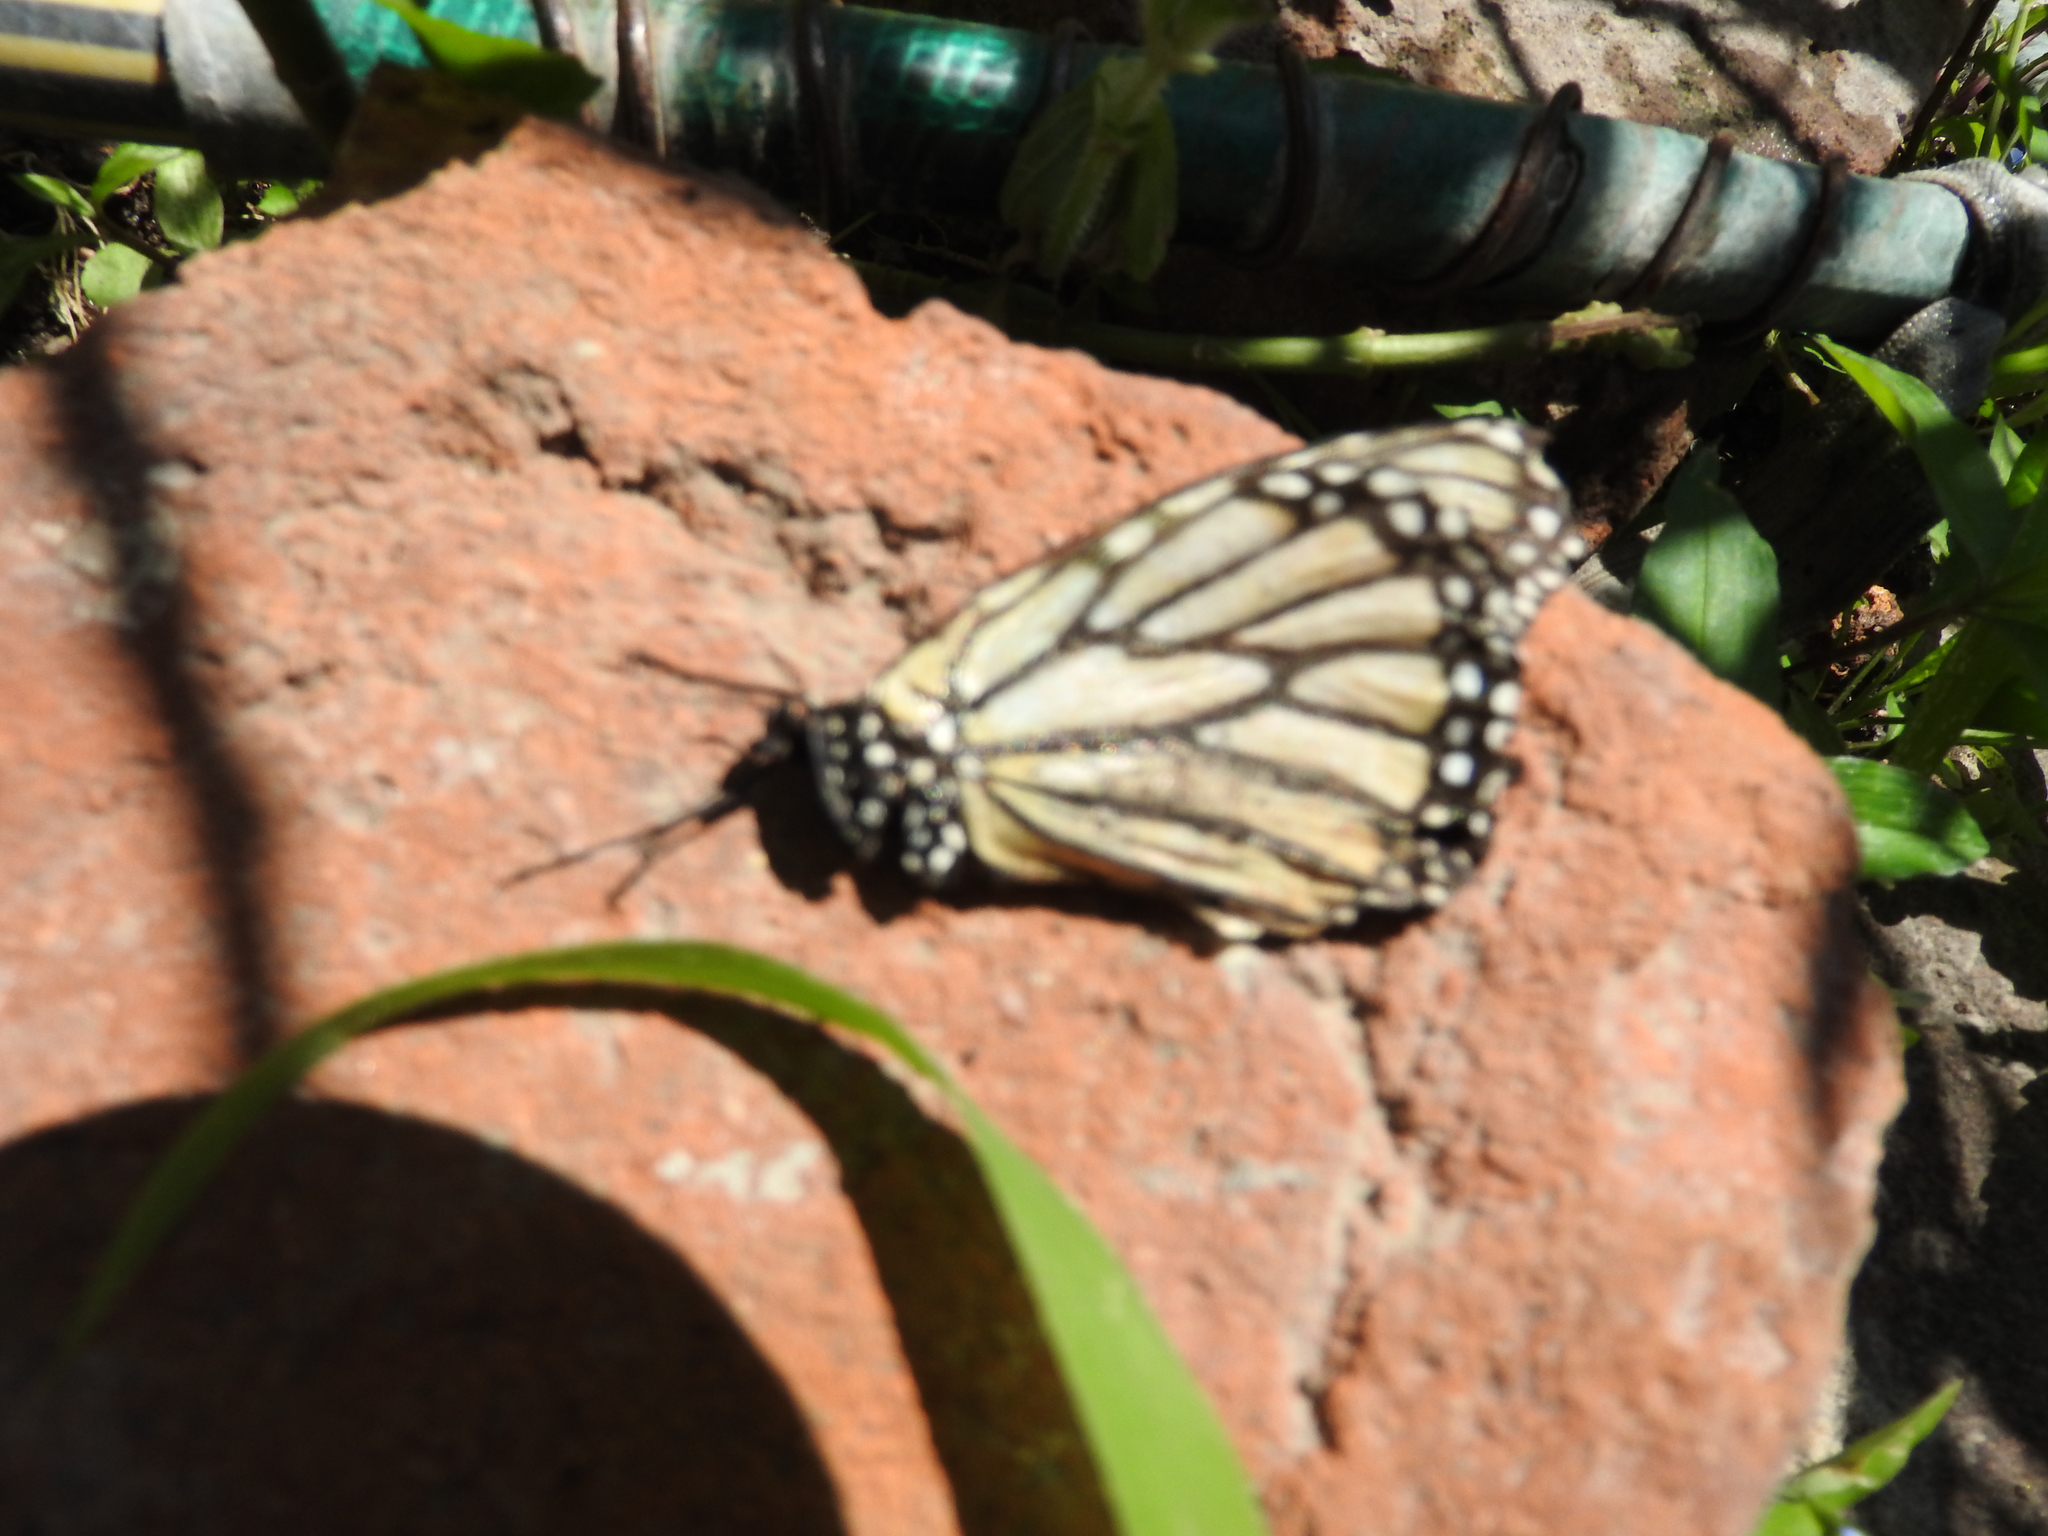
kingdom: Animalia
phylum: Arthropoda
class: Insecta
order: Lepidoptera
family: Nymphalidae
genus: Danaus
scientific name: Danaus plexippus
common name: Monarch
